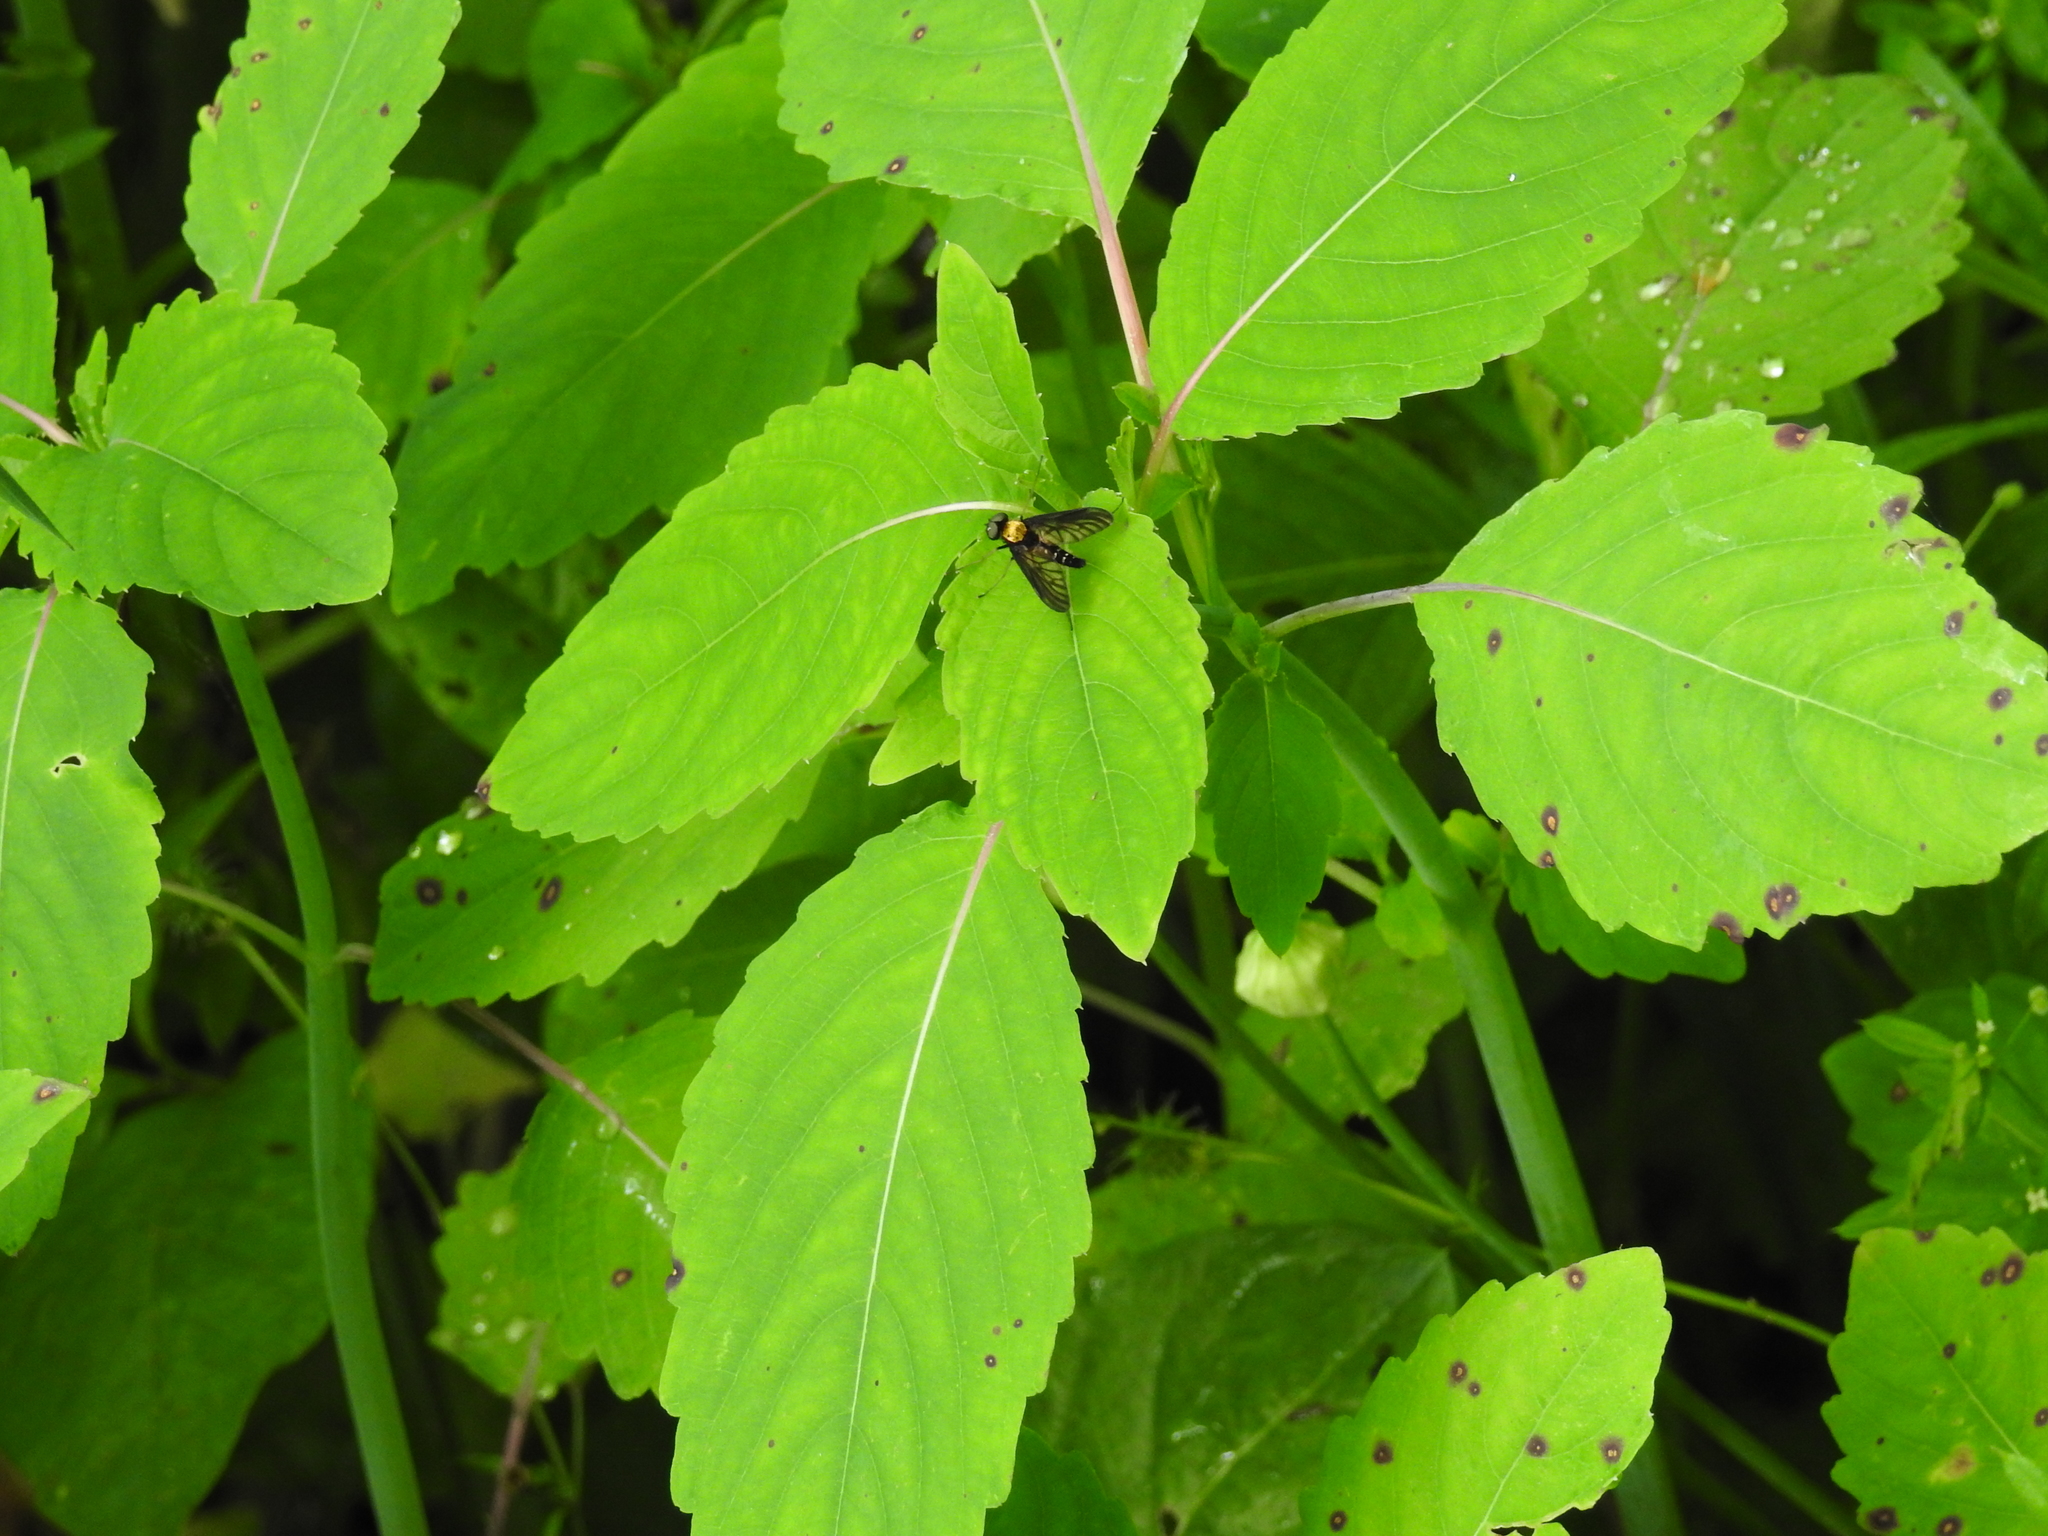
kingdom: Animalia
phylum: Arthropoda
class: Insecta
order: Diptera
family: Rhagionidae
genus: Chrysopilus
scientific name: Chrysopilus thoracicus
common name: Golden-backed snipe fly
